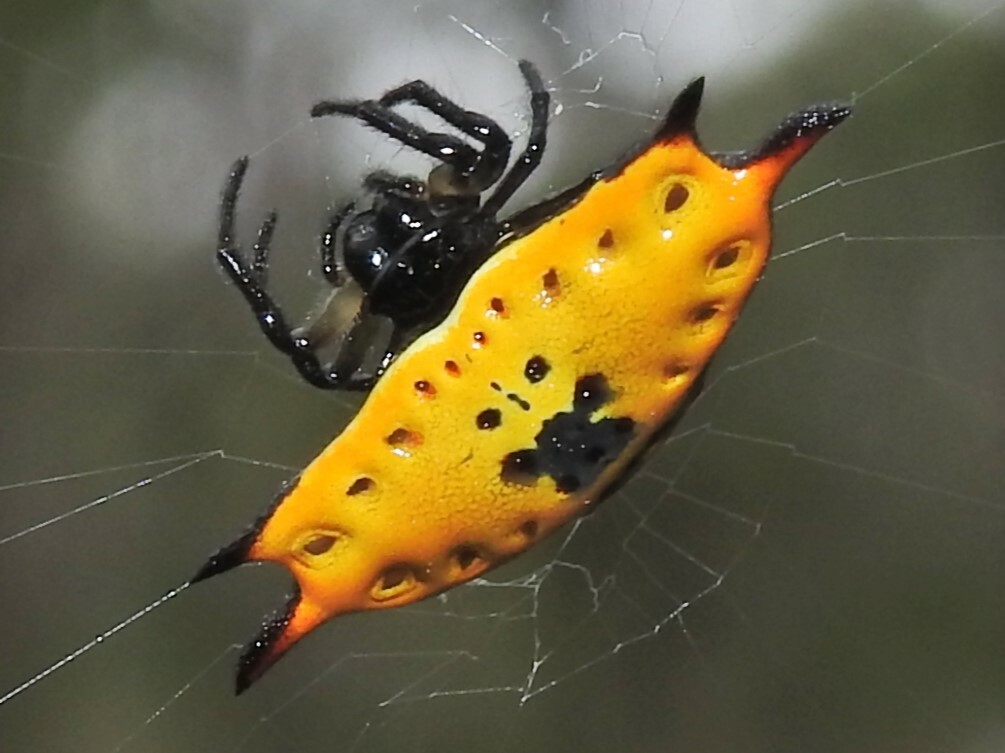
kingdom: Animalia
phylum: Arthropoda
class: Arachnida
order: Araneae
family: Araneidae
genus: Gasteracantha
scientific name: Gasteracantha quadrispinosa
